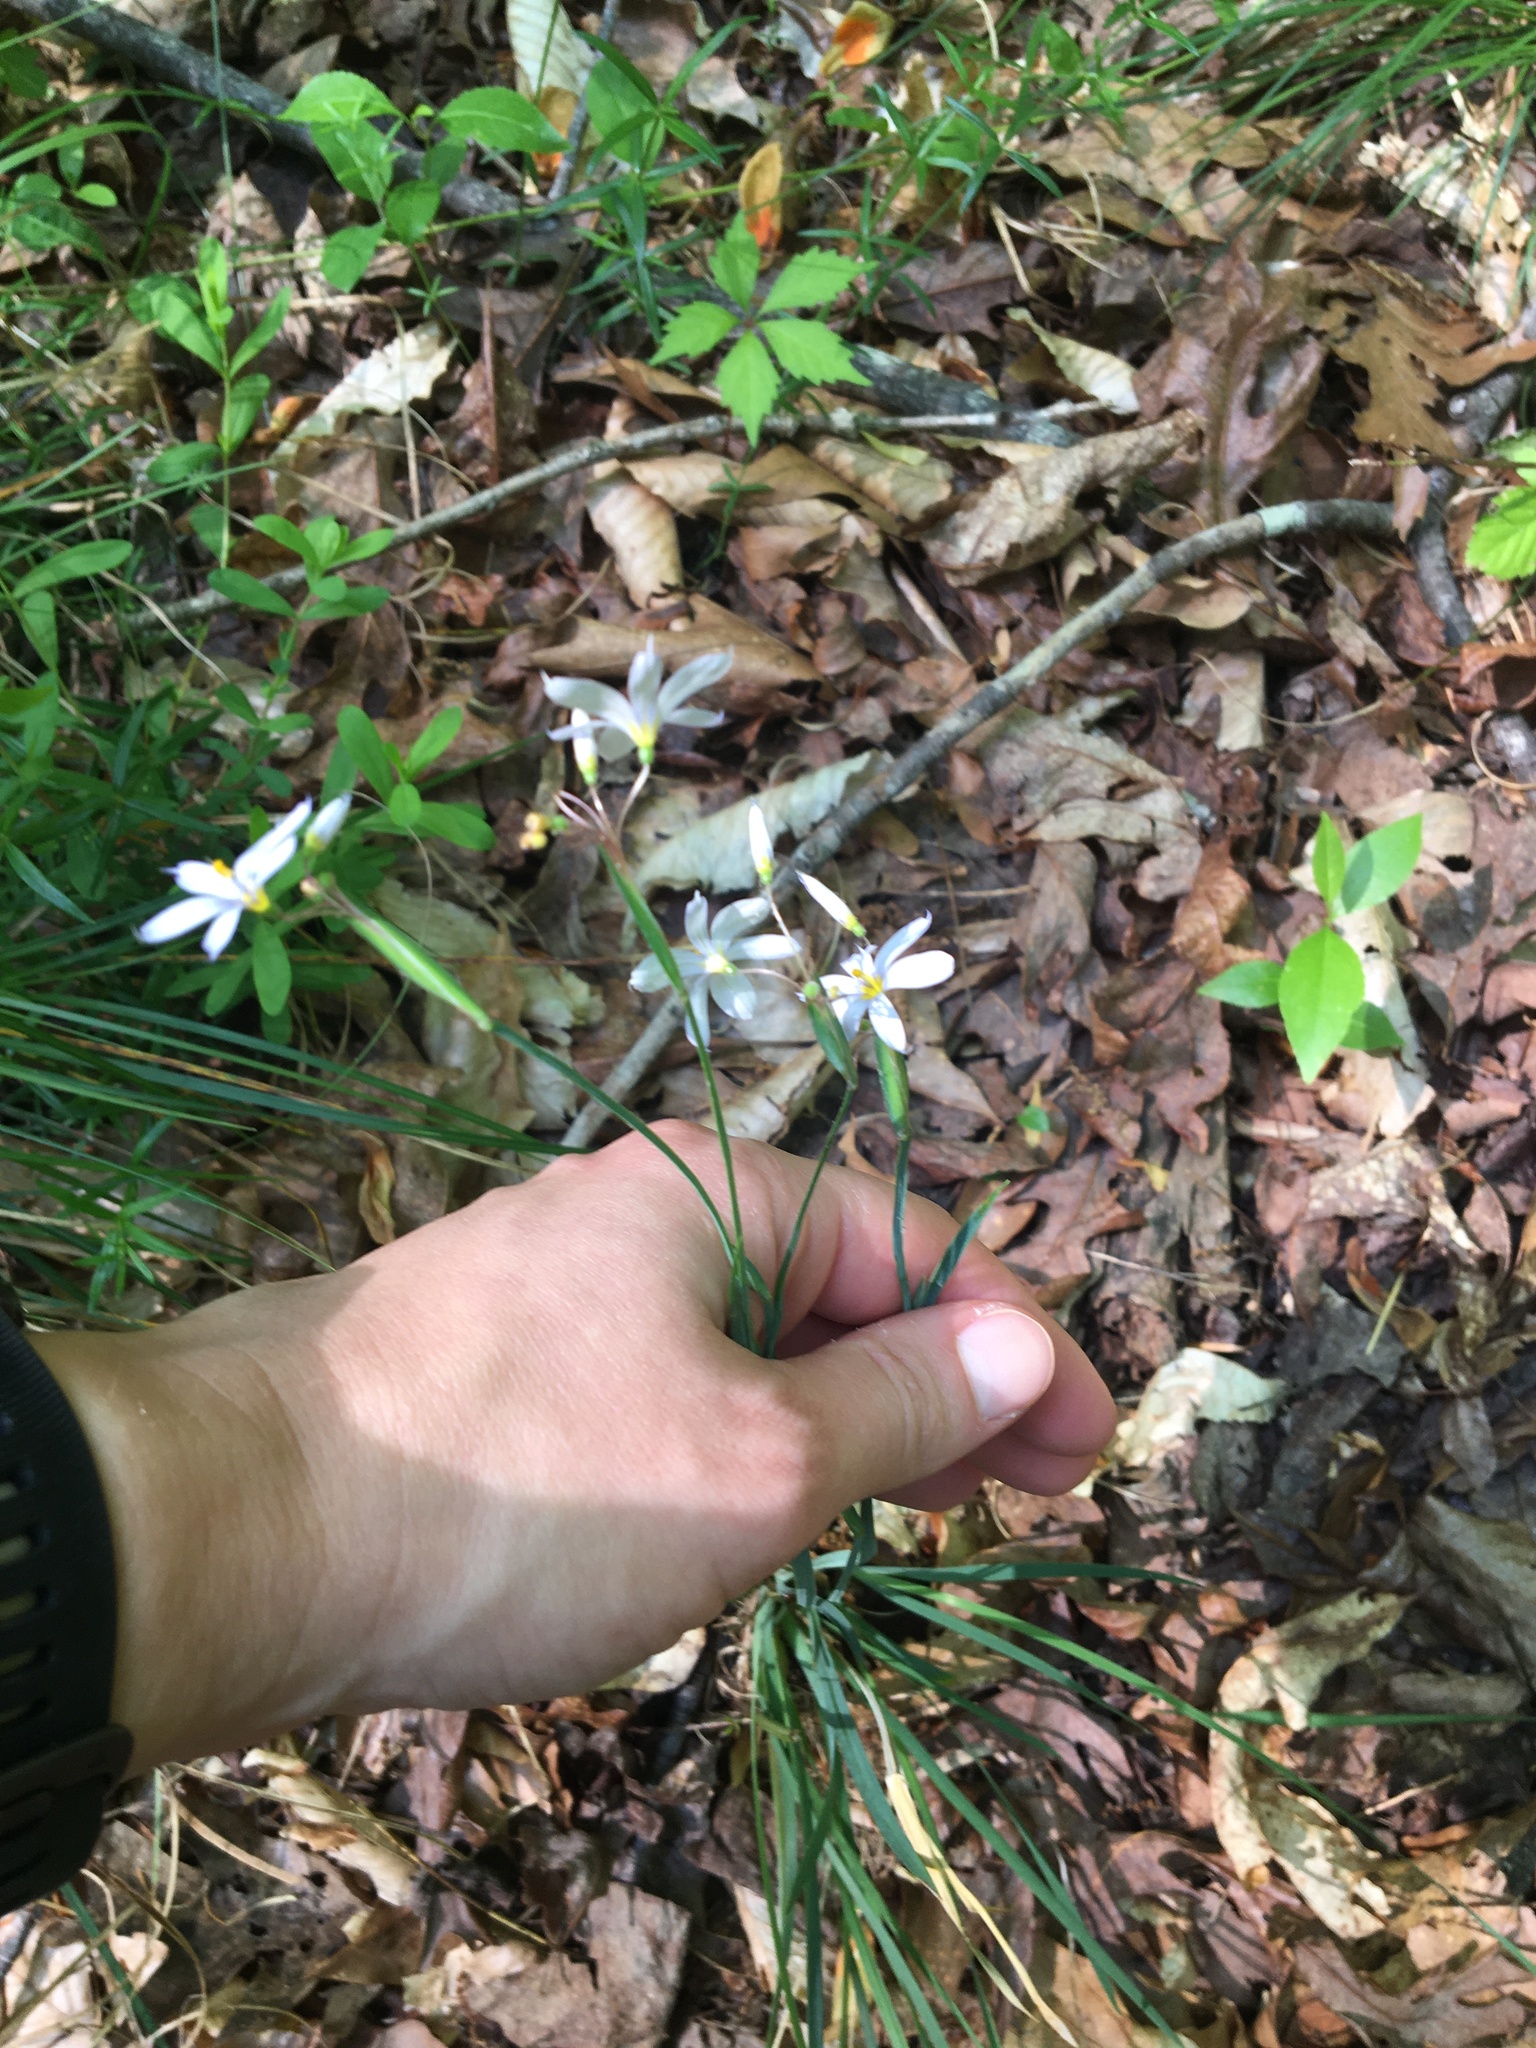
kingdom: Plantae
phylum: Tracheophyta
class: Liliopsida
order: Asparagales
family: Iridaceae
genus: Sisyrinchium
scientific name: Sisyrinchium albidum
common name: Pale blue-eyed-grass
